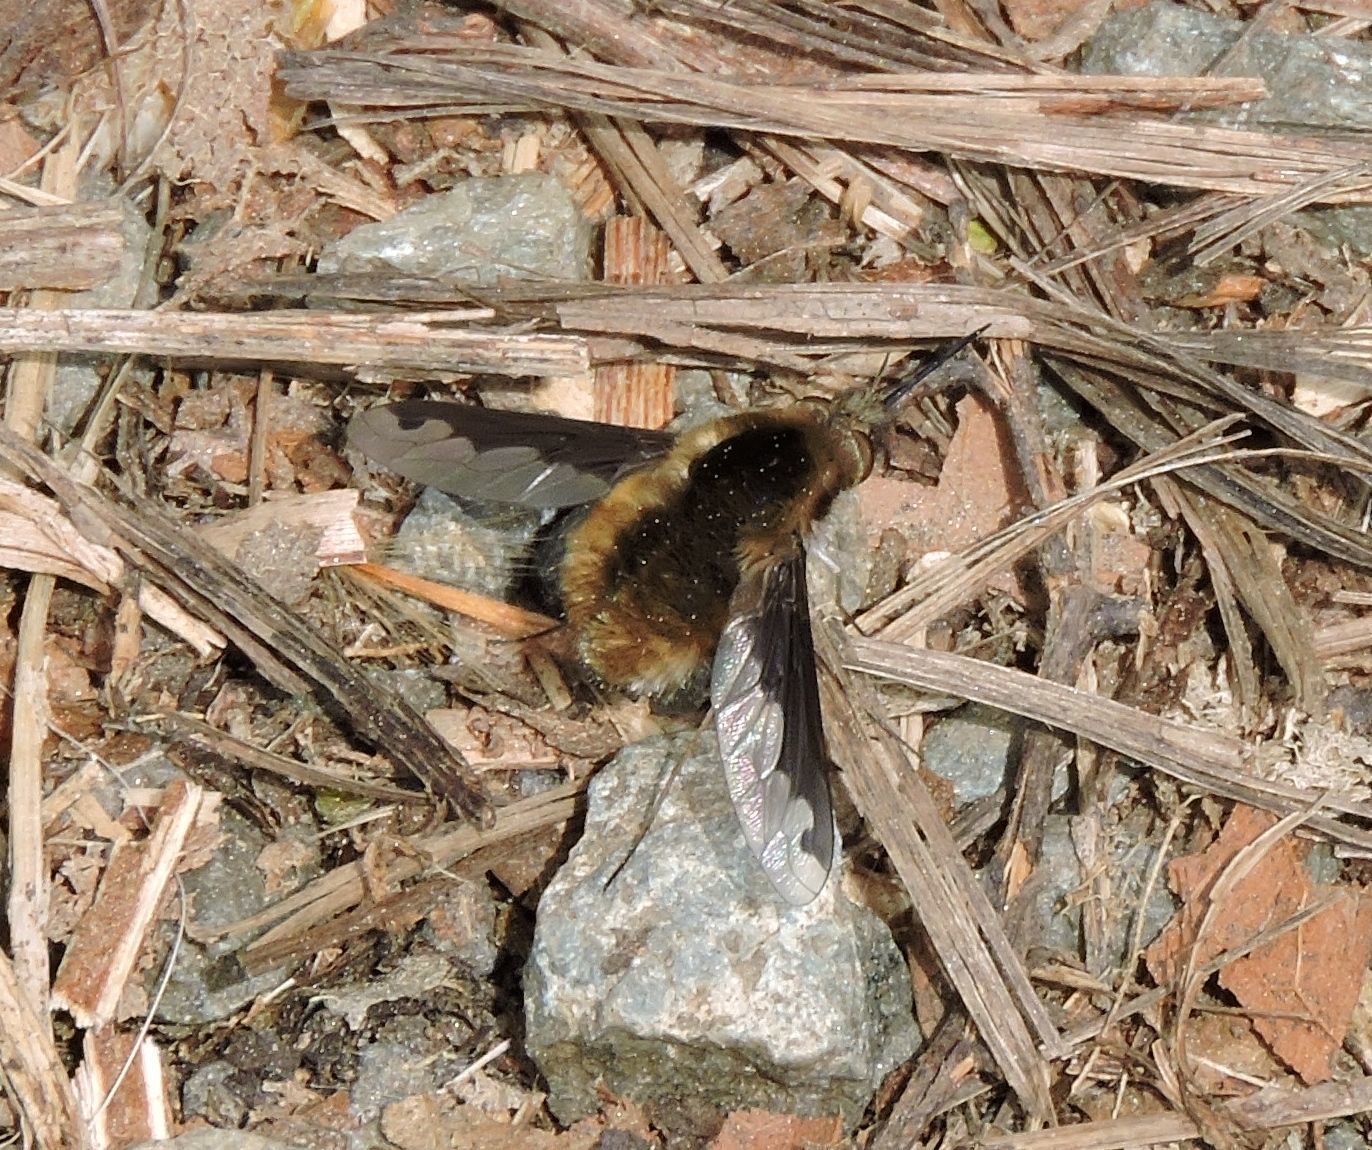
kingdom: Animalia
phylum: Arthropoda
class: Insecta
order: Diptera
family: Bombyliidae
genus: Bombylius
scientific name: Bombylius major
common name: Bee fly
